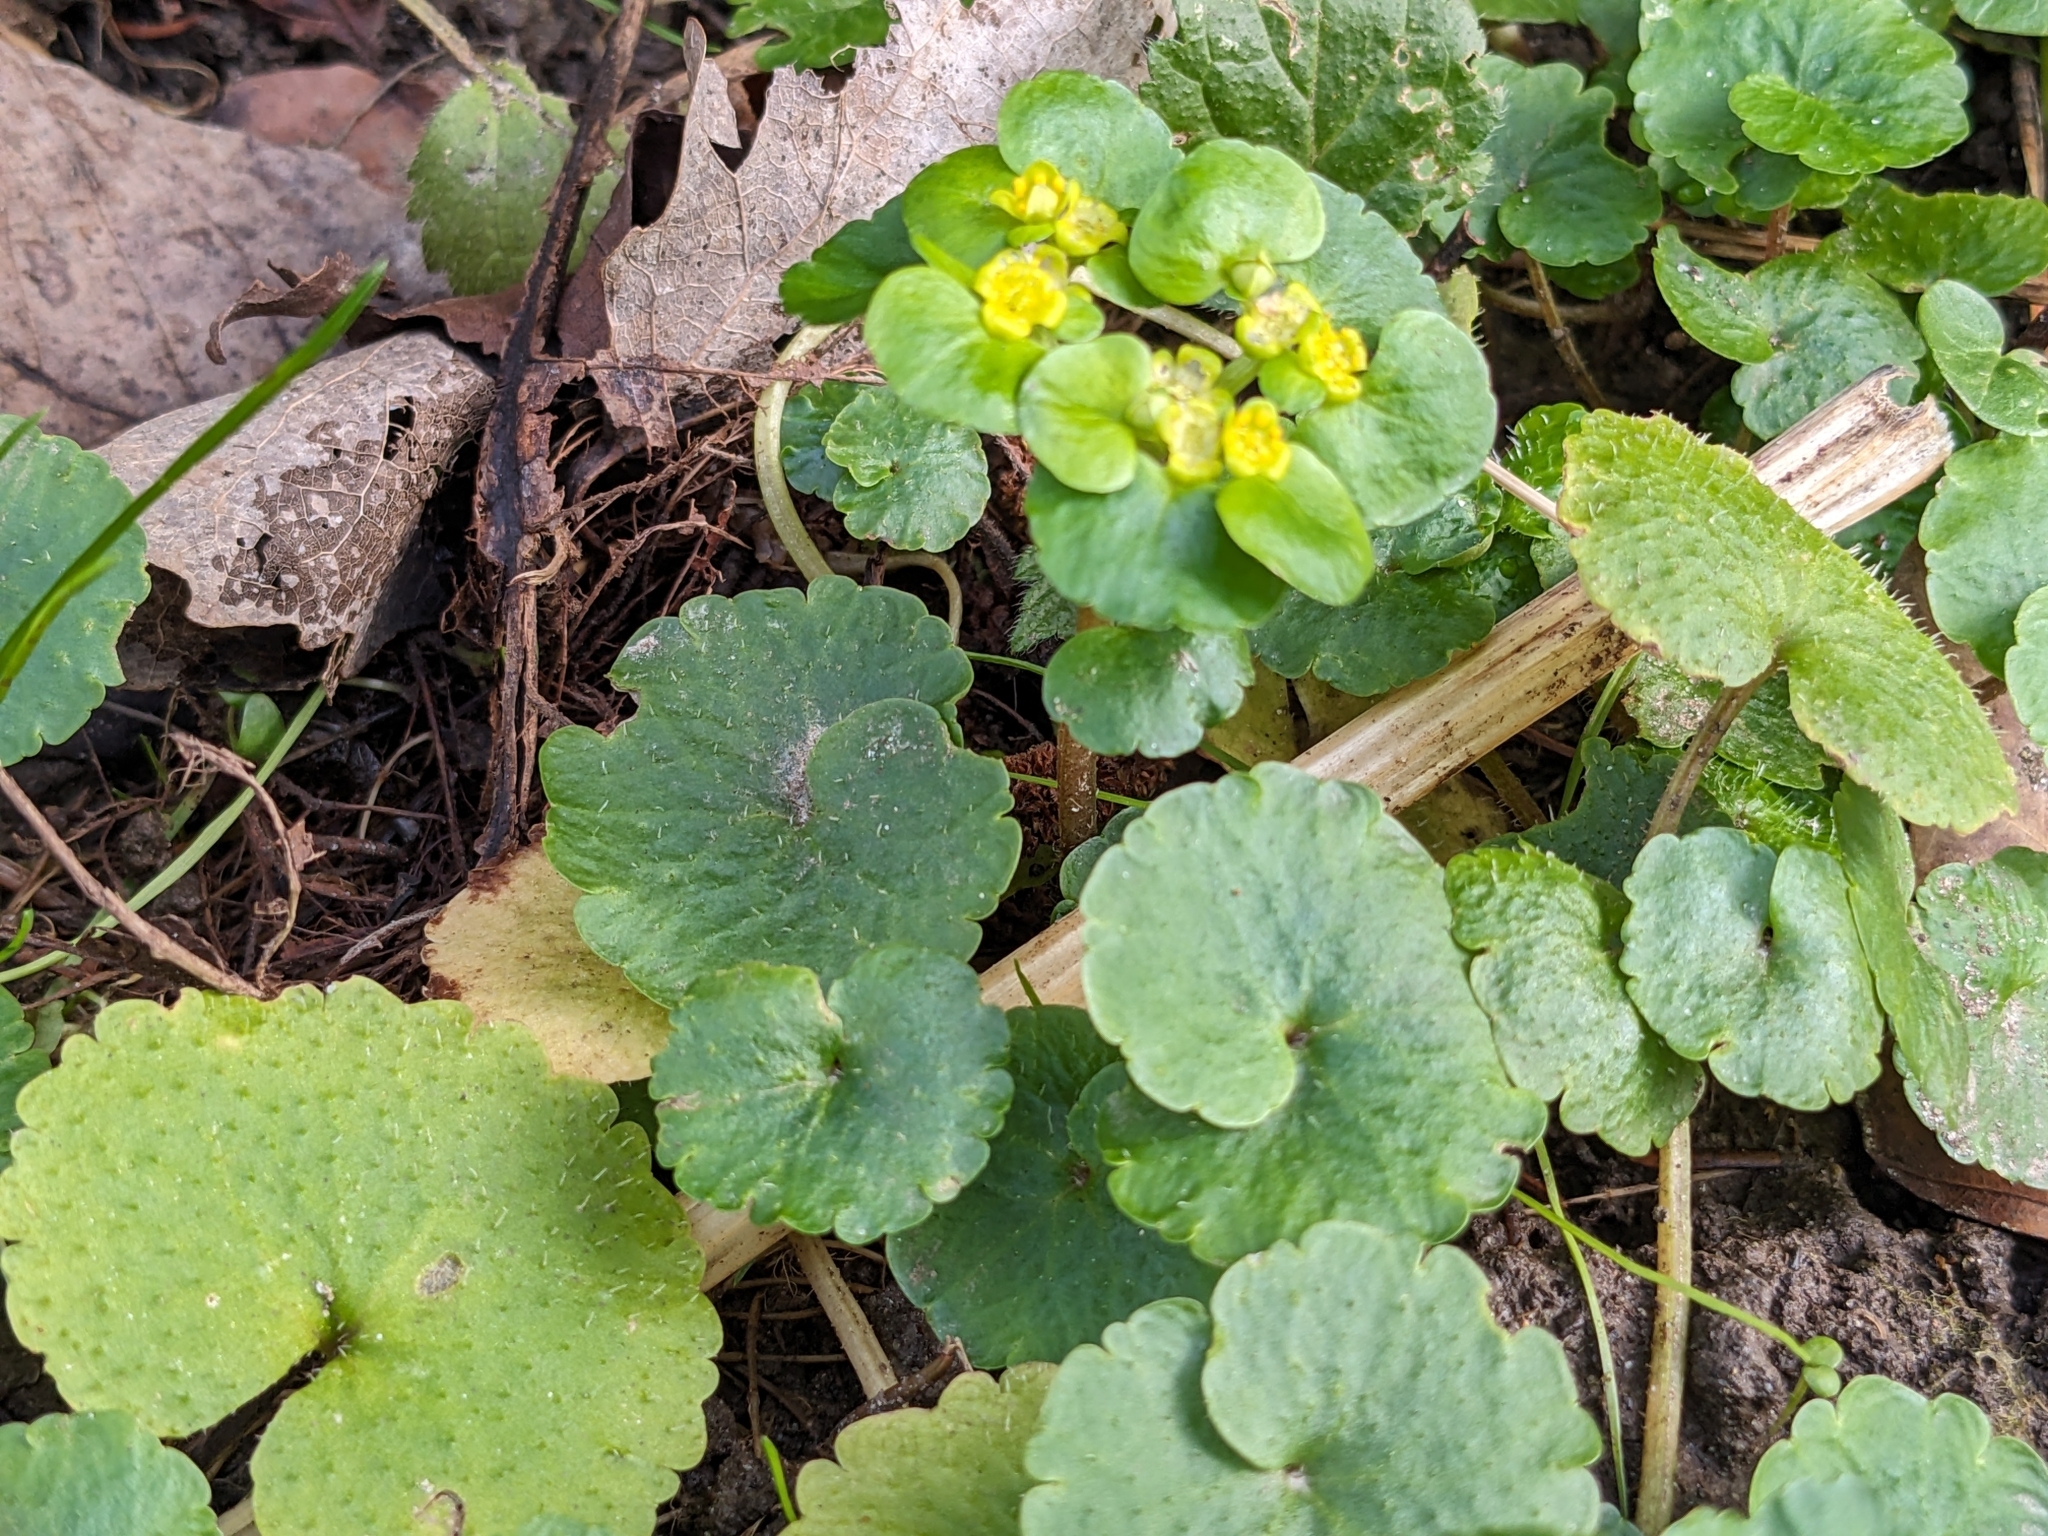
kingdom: Plantae
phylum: Tracheophyta
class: Magnoliopsida
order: Saxifragales
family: Saxifragaceae
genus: Chrysosplenium
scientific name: Chrysosplenium alternifolium
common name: Alternate-leaved golden-saxifrage
